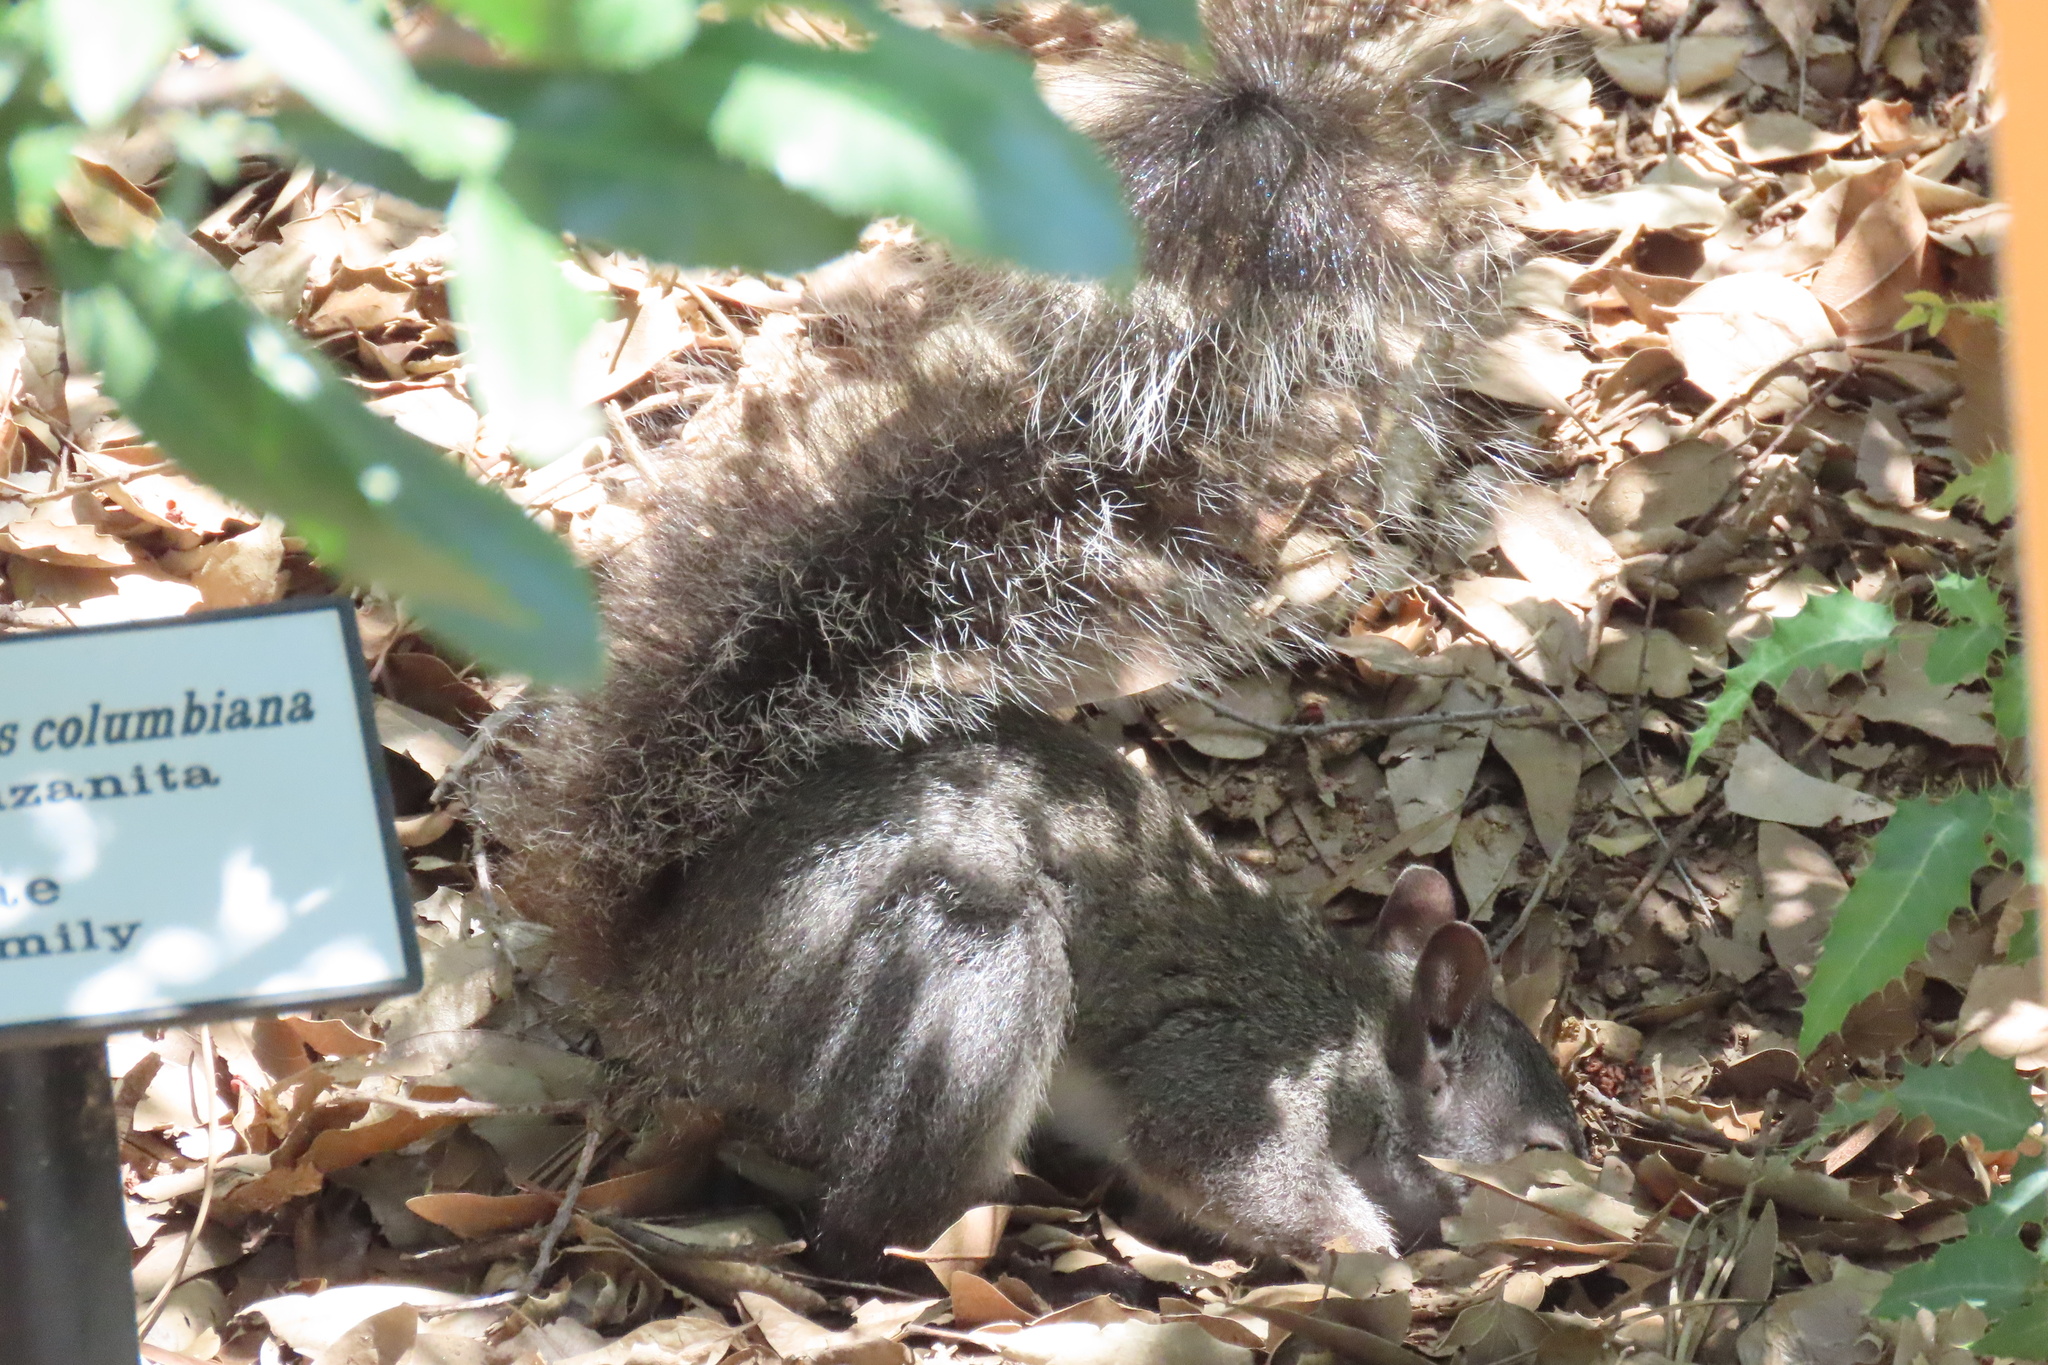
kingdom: Animalia
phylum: Chordata
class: Mammalia
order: Rodentia
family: Sciuridae
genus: Sciurus
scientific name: Sciurus griseus
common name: Western gray squirrel
